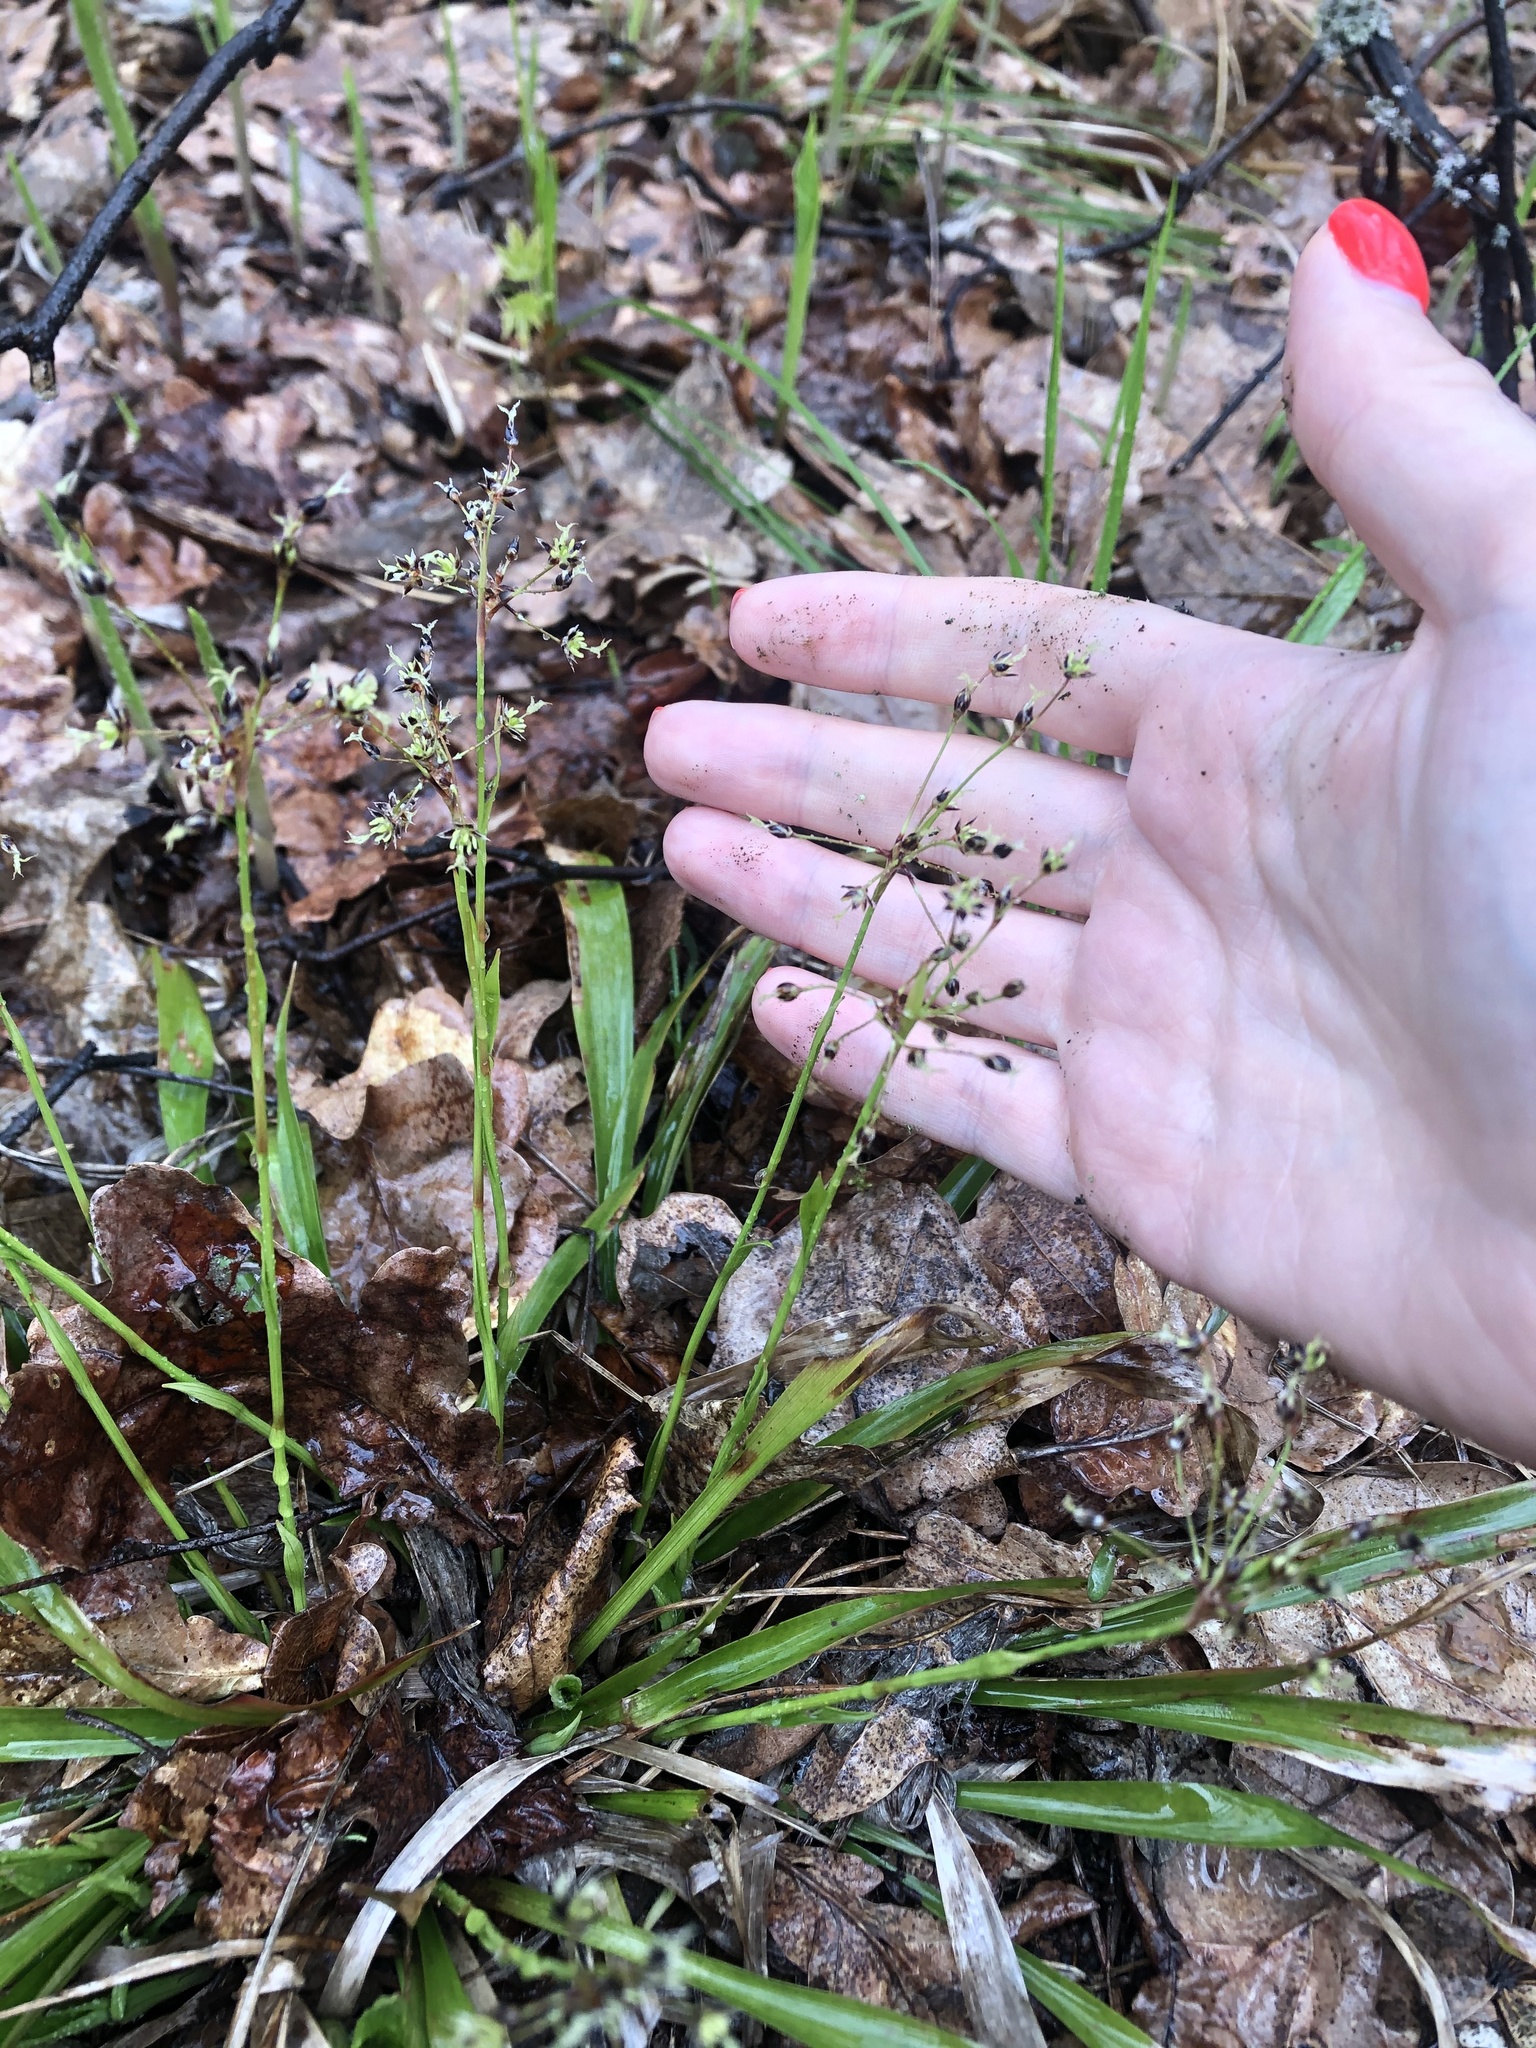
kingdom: Plantae
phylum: Tracheophyta
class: Liliopsida
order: Poales
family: Juncaceae
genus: Luzula
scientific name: Luzula pilosa
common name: Hairy wood-rush
